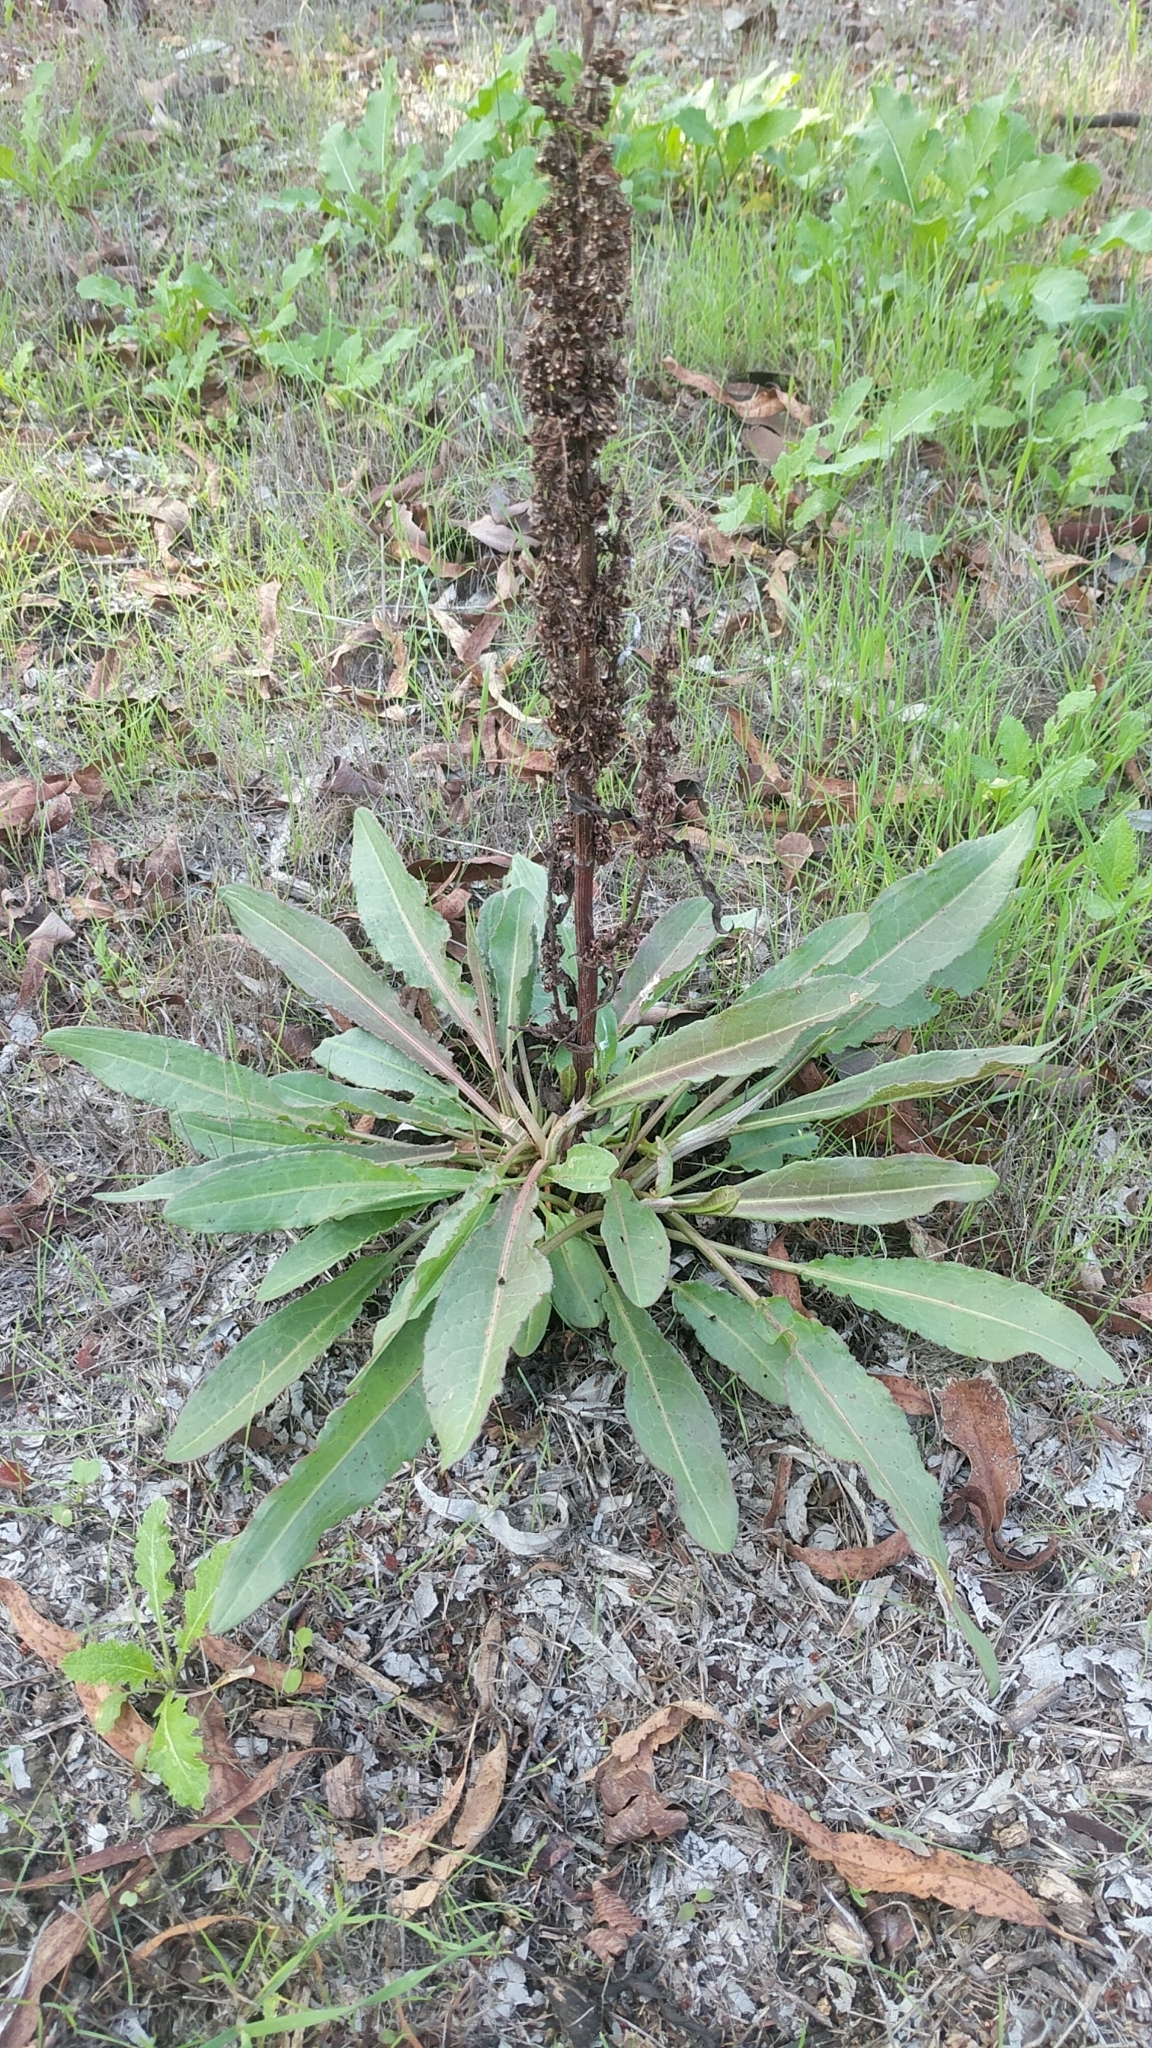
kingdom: Plantae
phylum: Tracheophyta
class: Magnoliopsida
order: Caryophyllales
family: Polygonaceae
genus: Rumex
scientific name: Rumex crispus
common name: Curled dock
